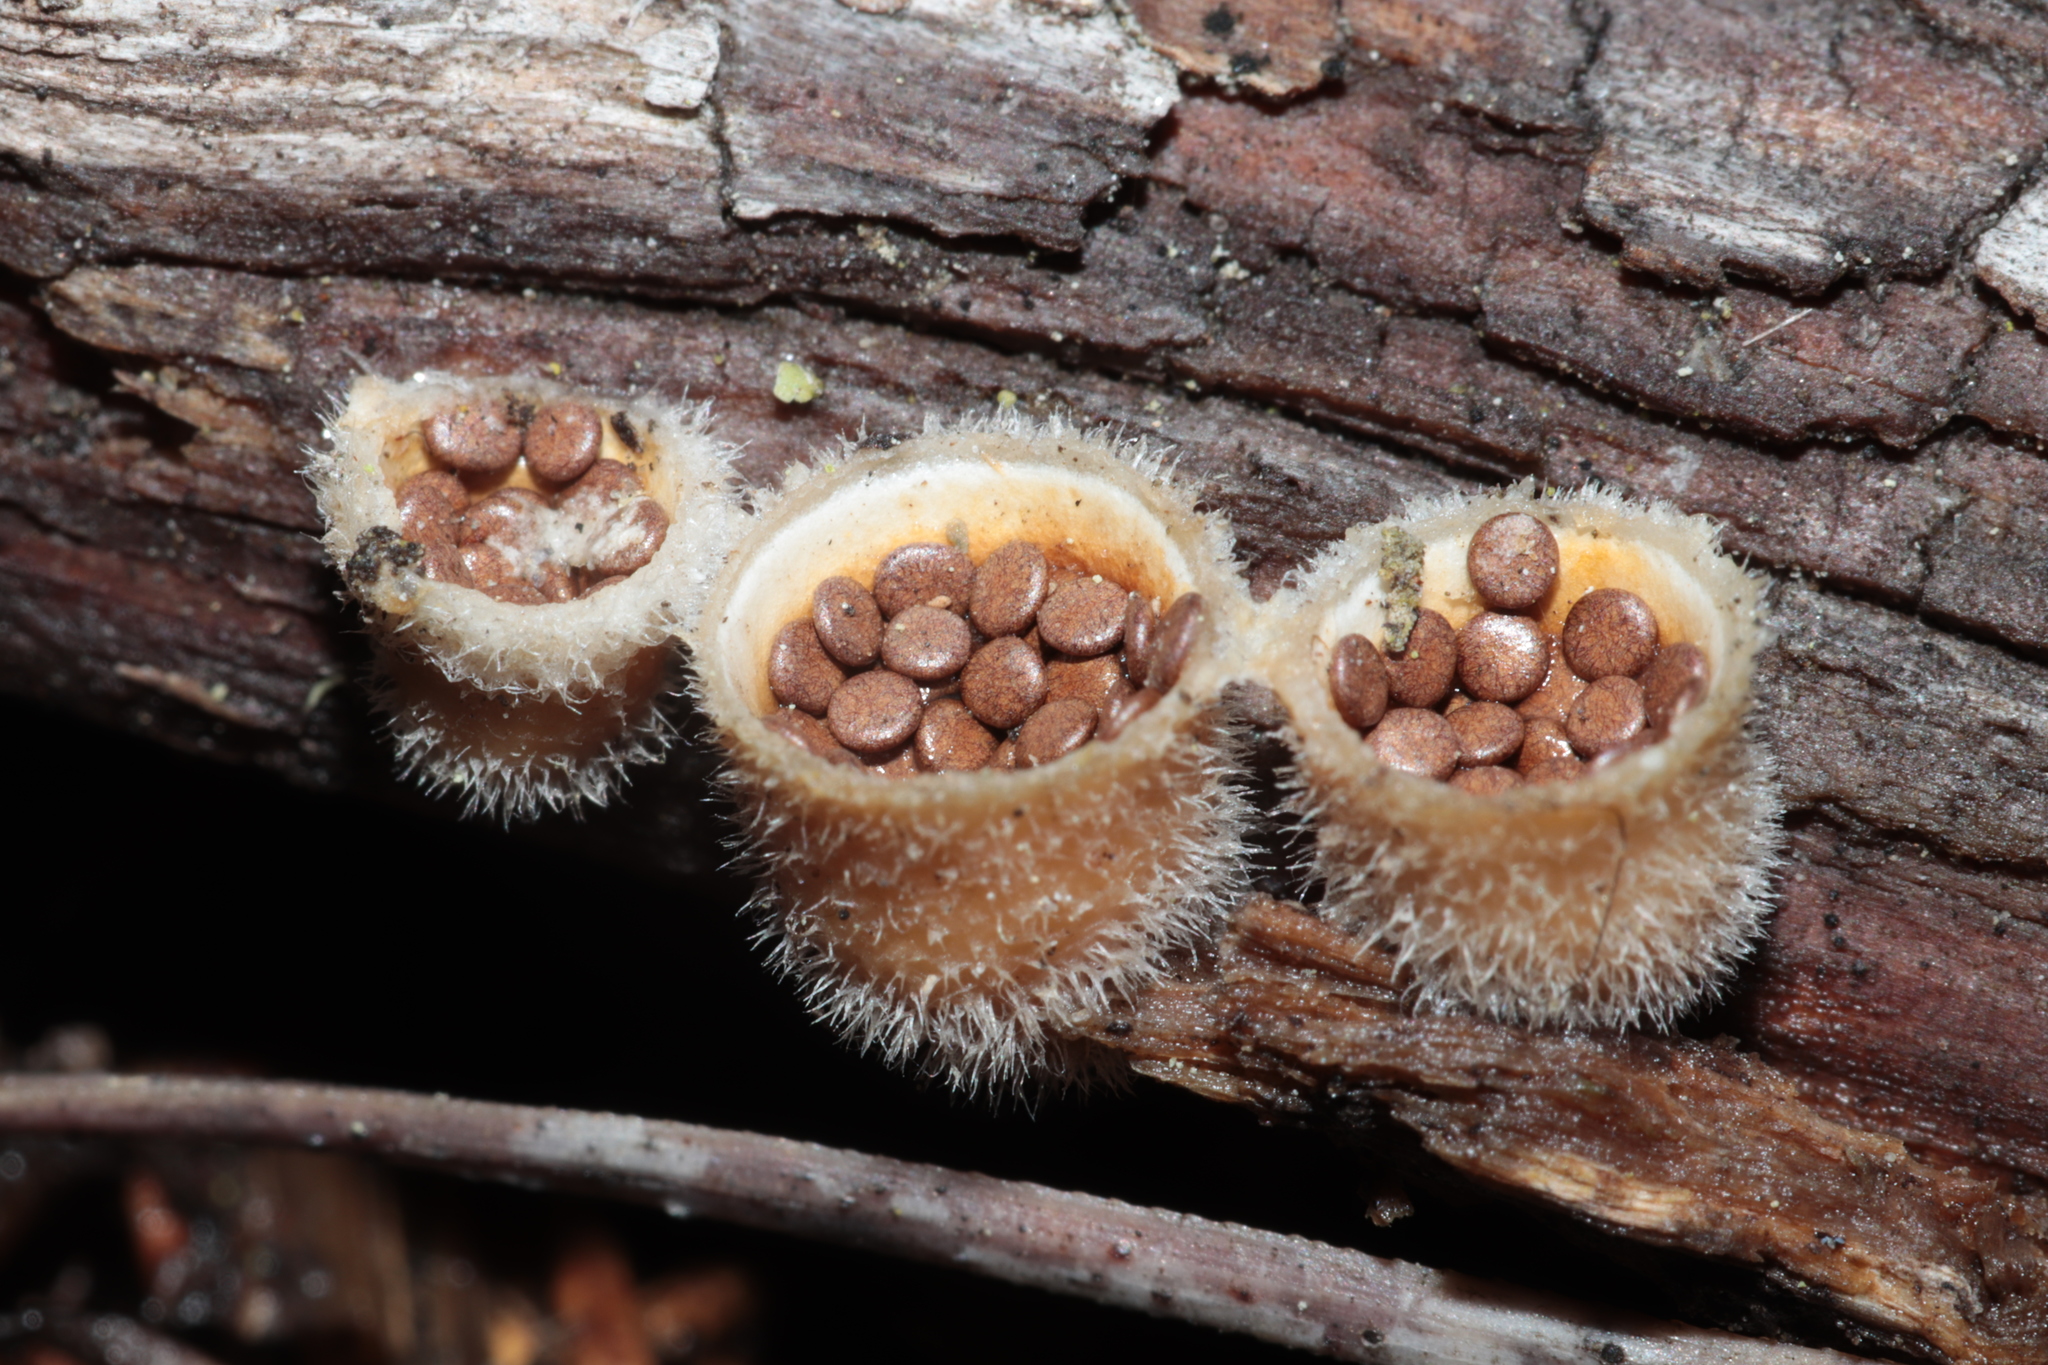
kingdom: Fungi
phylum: Basidiomycota
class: Agaricomycetes
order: Agaricales
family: Agaricaceae
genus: Nidula
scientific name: Nidula niveotomentosa
